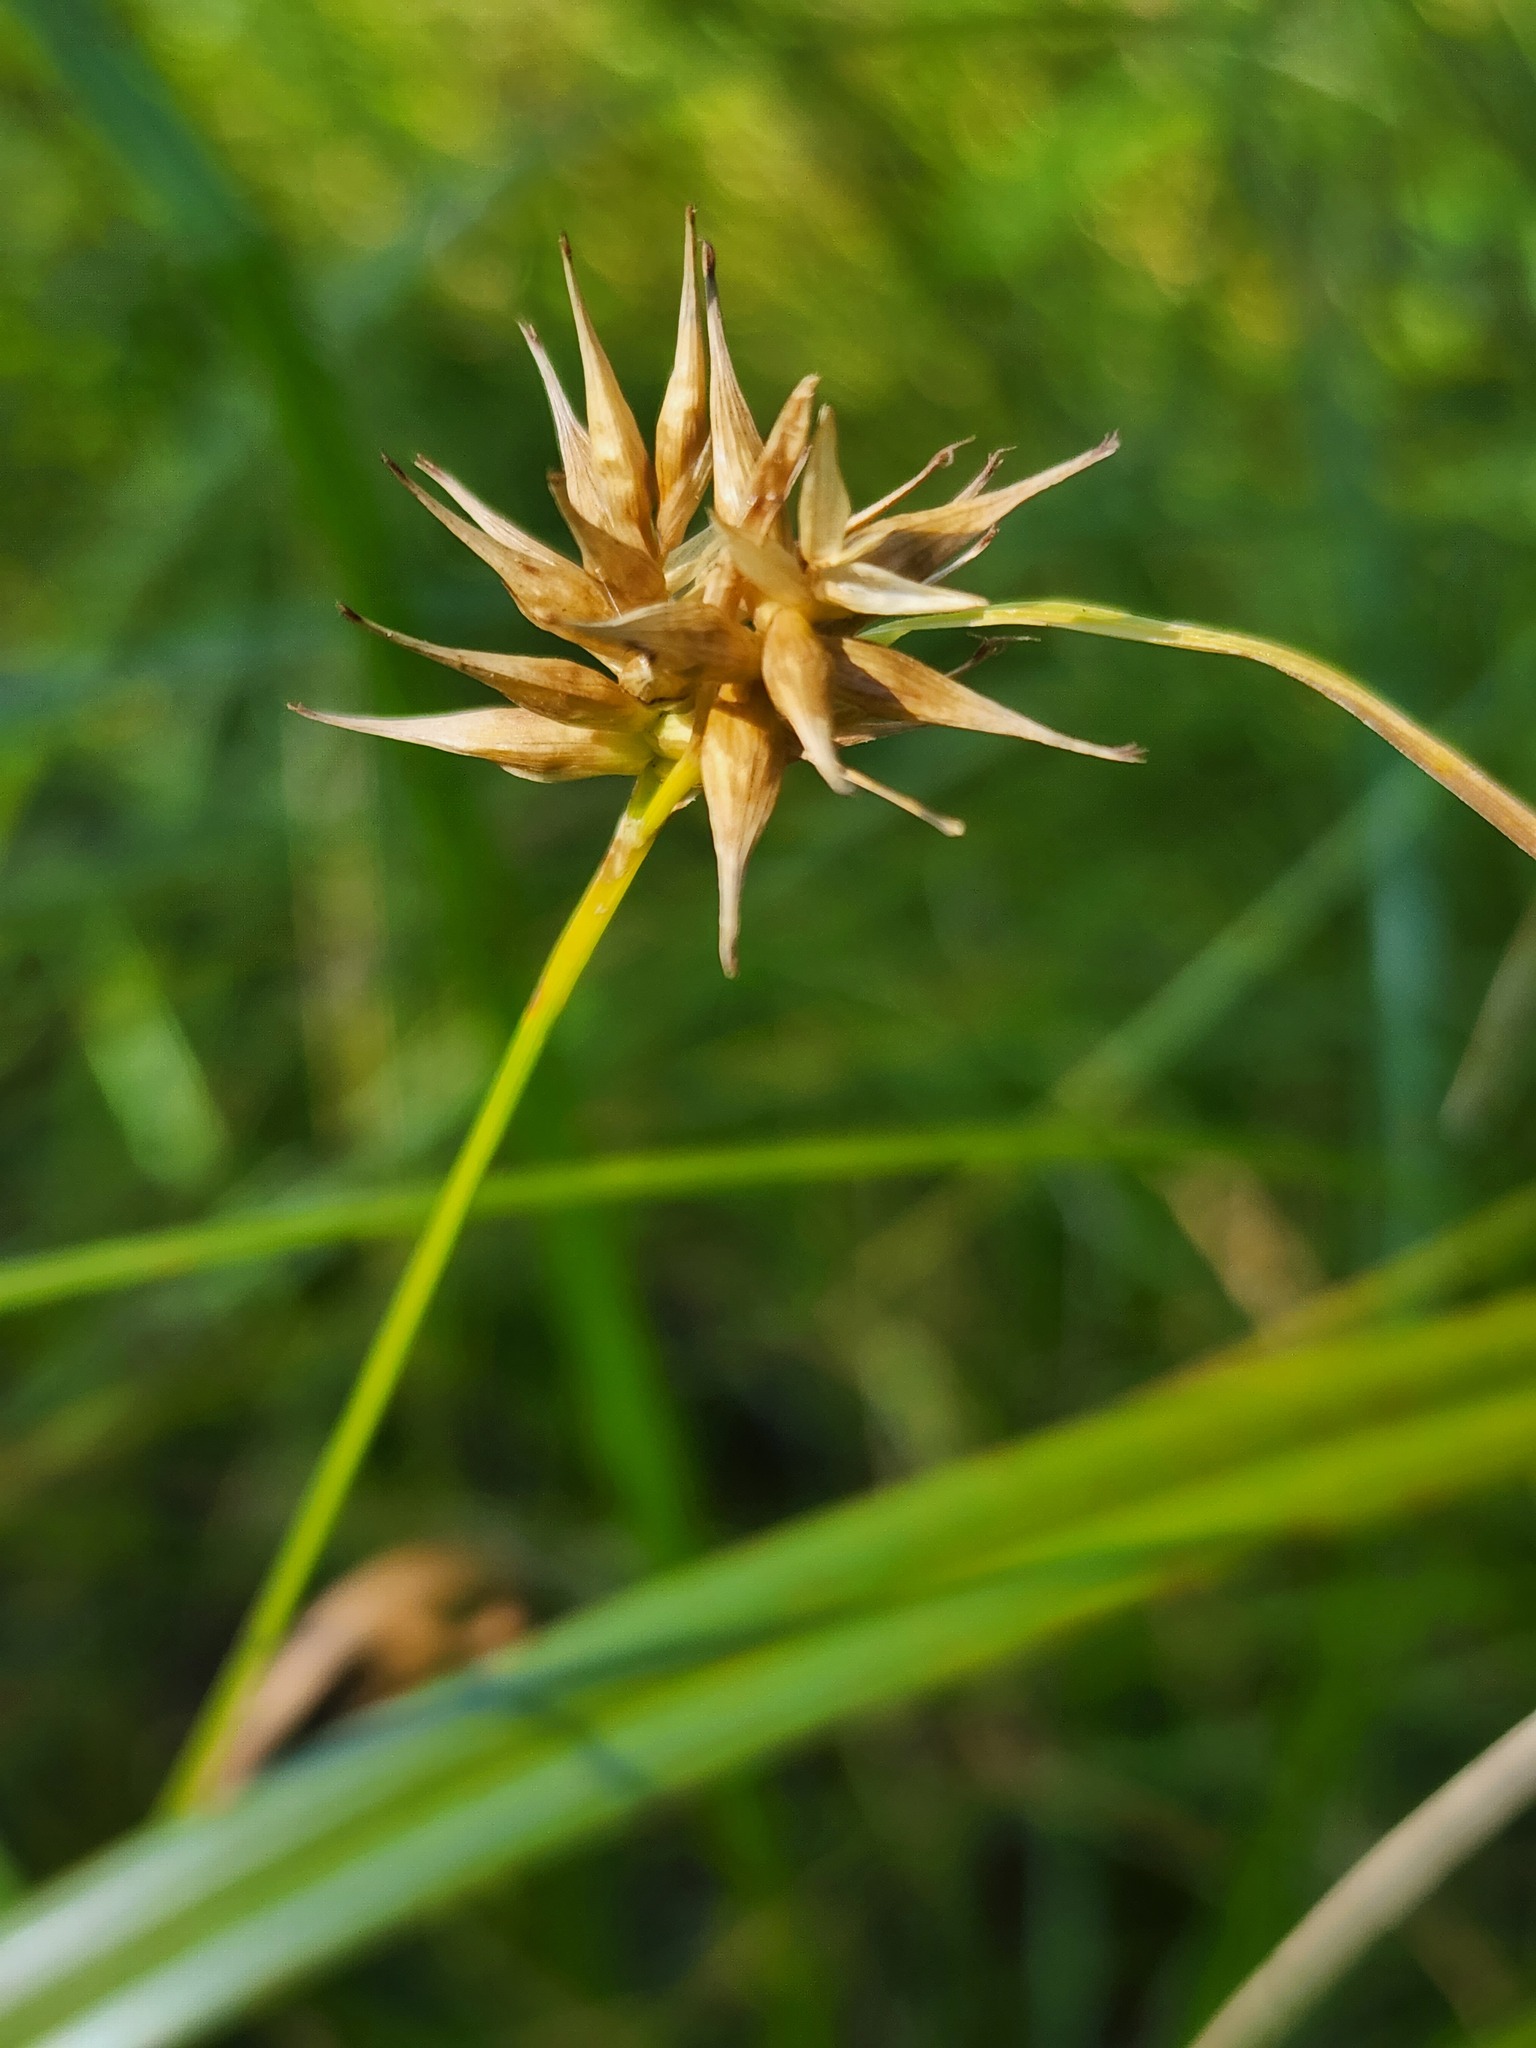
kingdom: Plantae
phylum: Tracheophyta
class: Liliopsida
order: Poales
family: Cyperaceae
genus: Carex
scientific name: Carex michauxiana
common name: Michaux's sedge
